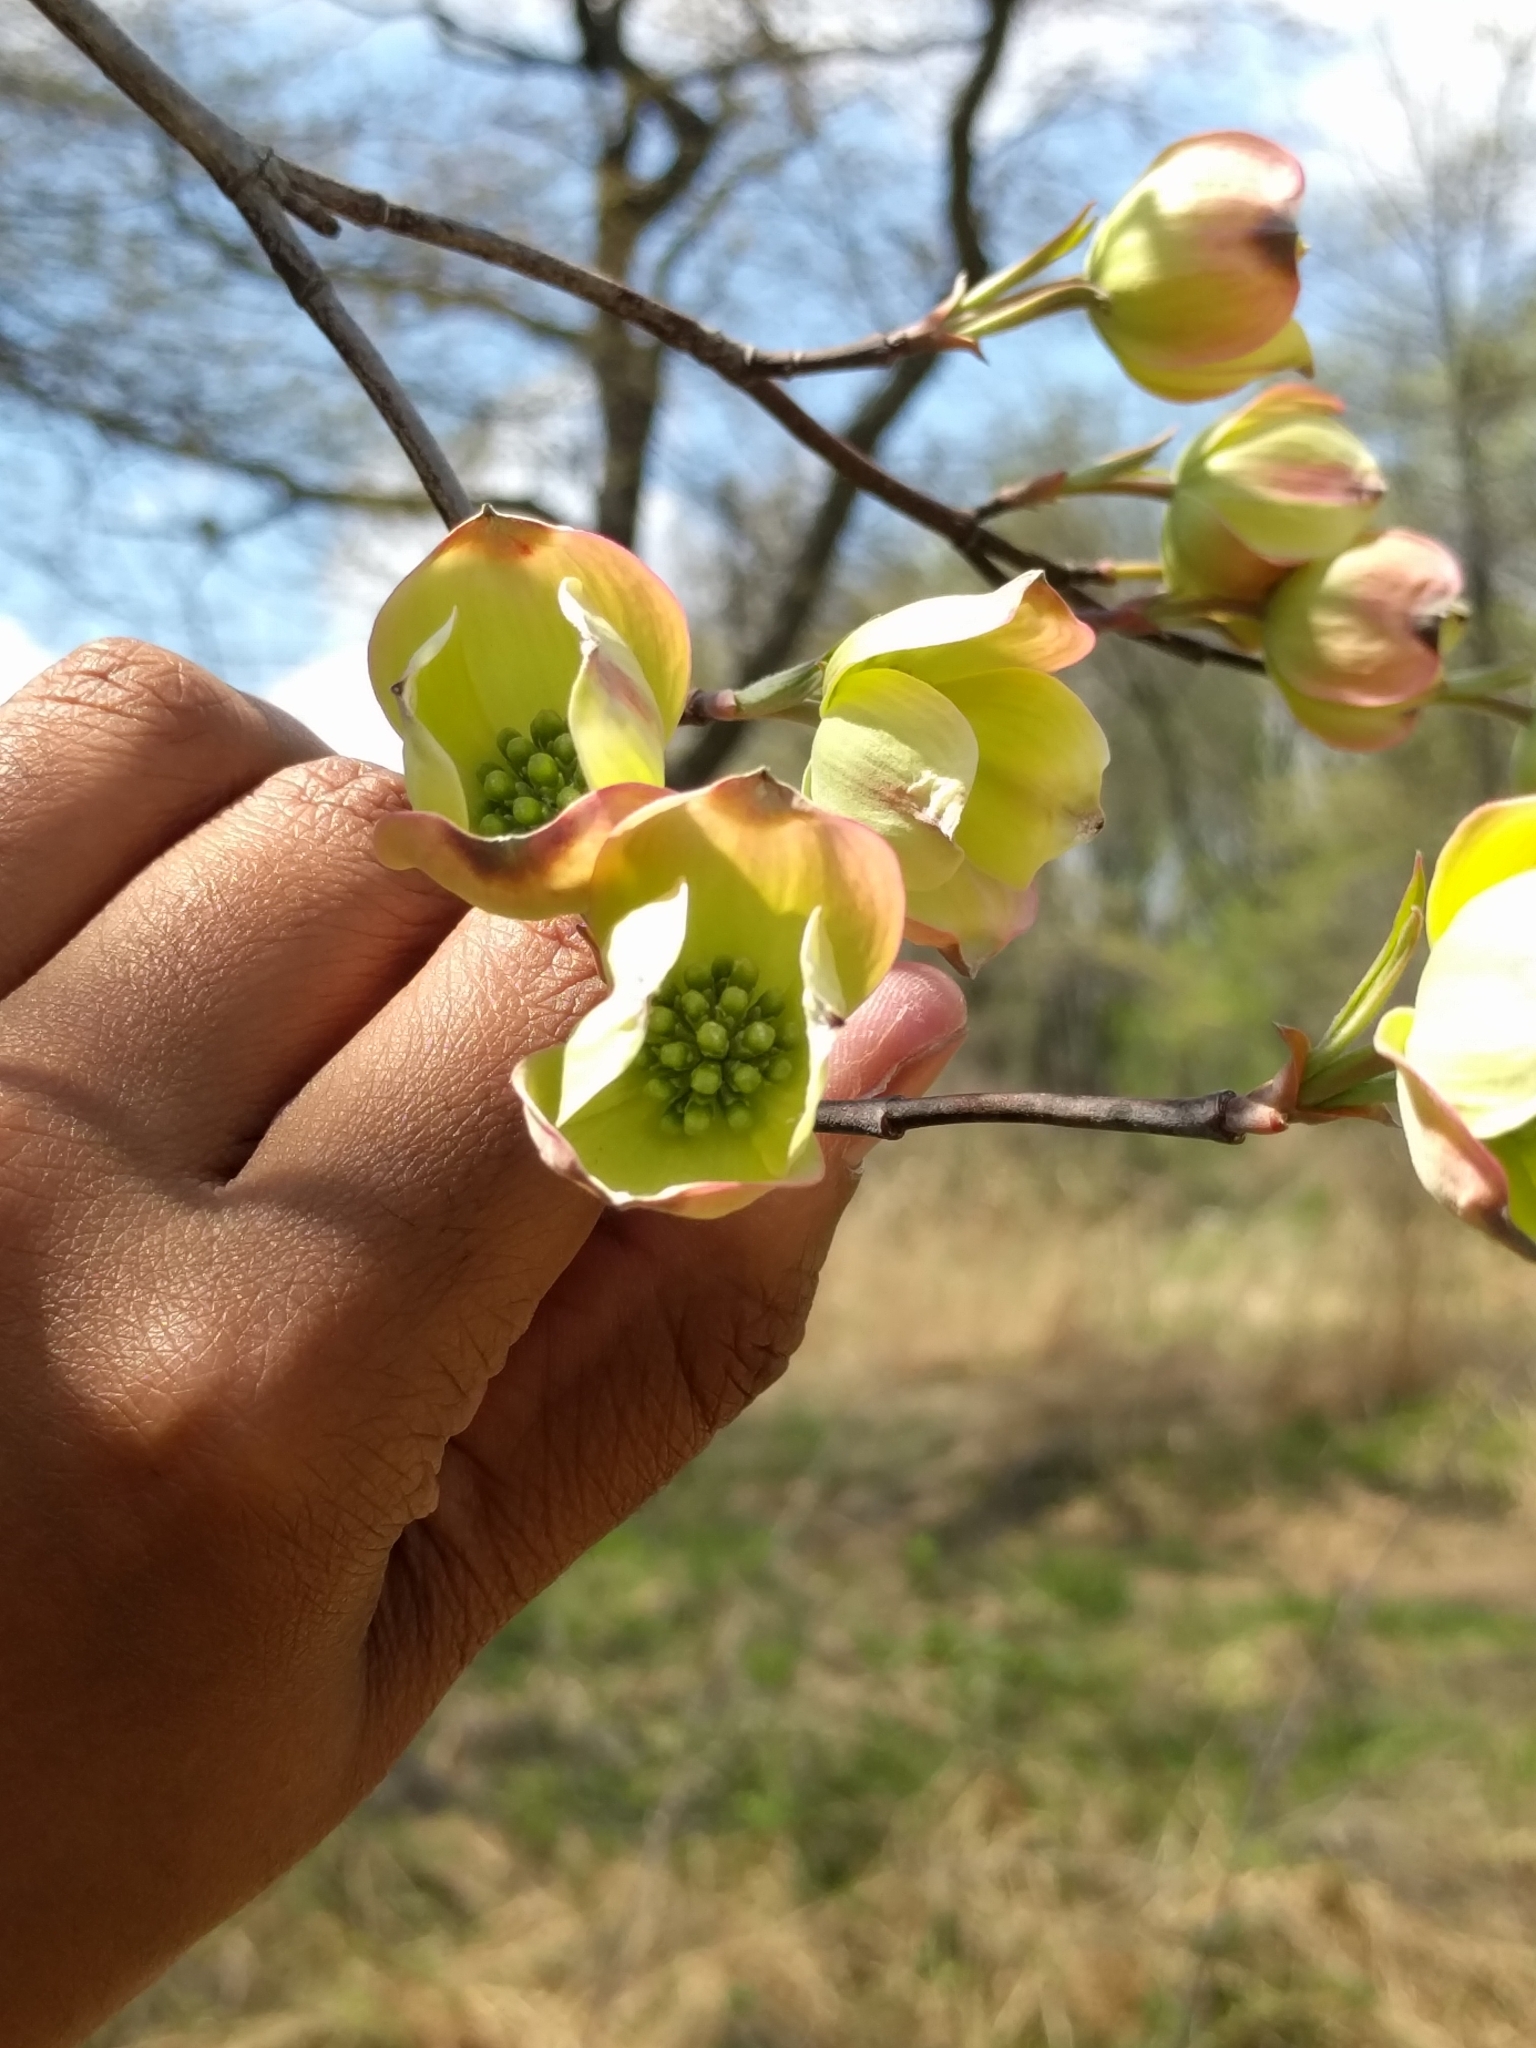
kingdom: Plantae
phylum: Tracheophyta
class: Magnoliopsida
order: Cornales
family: Cornaceae
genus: Cornus
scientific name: Cornus florida
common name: Flowering dogwood
